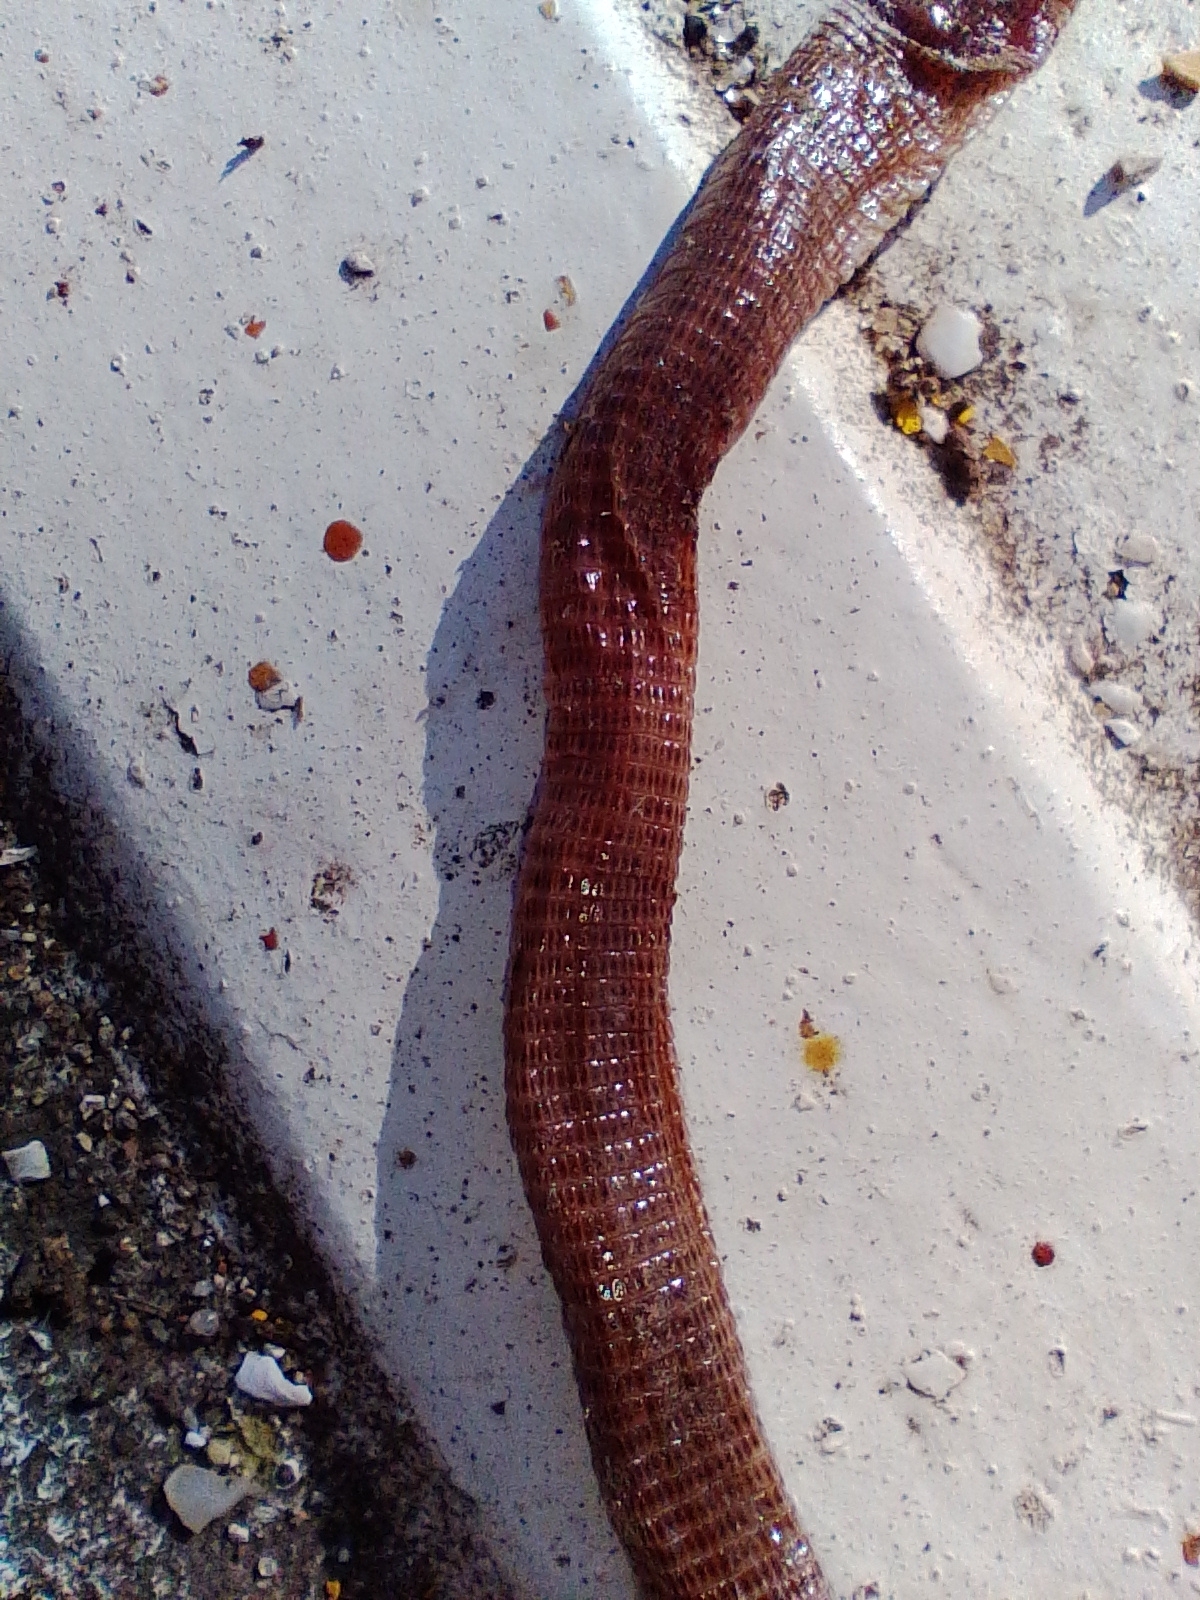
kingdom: Animalia
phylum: Chordata
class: Squamata
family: Amphisbaenidae
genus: Amphisbaena
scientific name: Amphisbaena darwinii
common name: Darwin's ringed worm lizard
